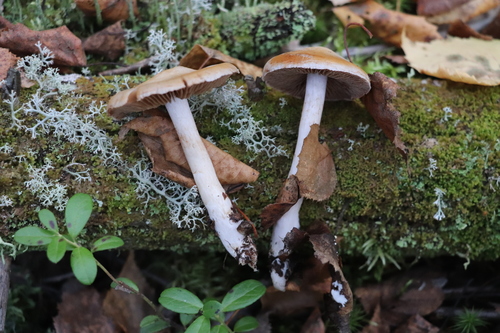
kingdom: Fungi
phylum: Basidiomycota
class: Agaricomycetes
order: Agaricales
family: Cortinariaceae
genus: Cortinarius
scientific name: Cortinarius alboviolaceus
